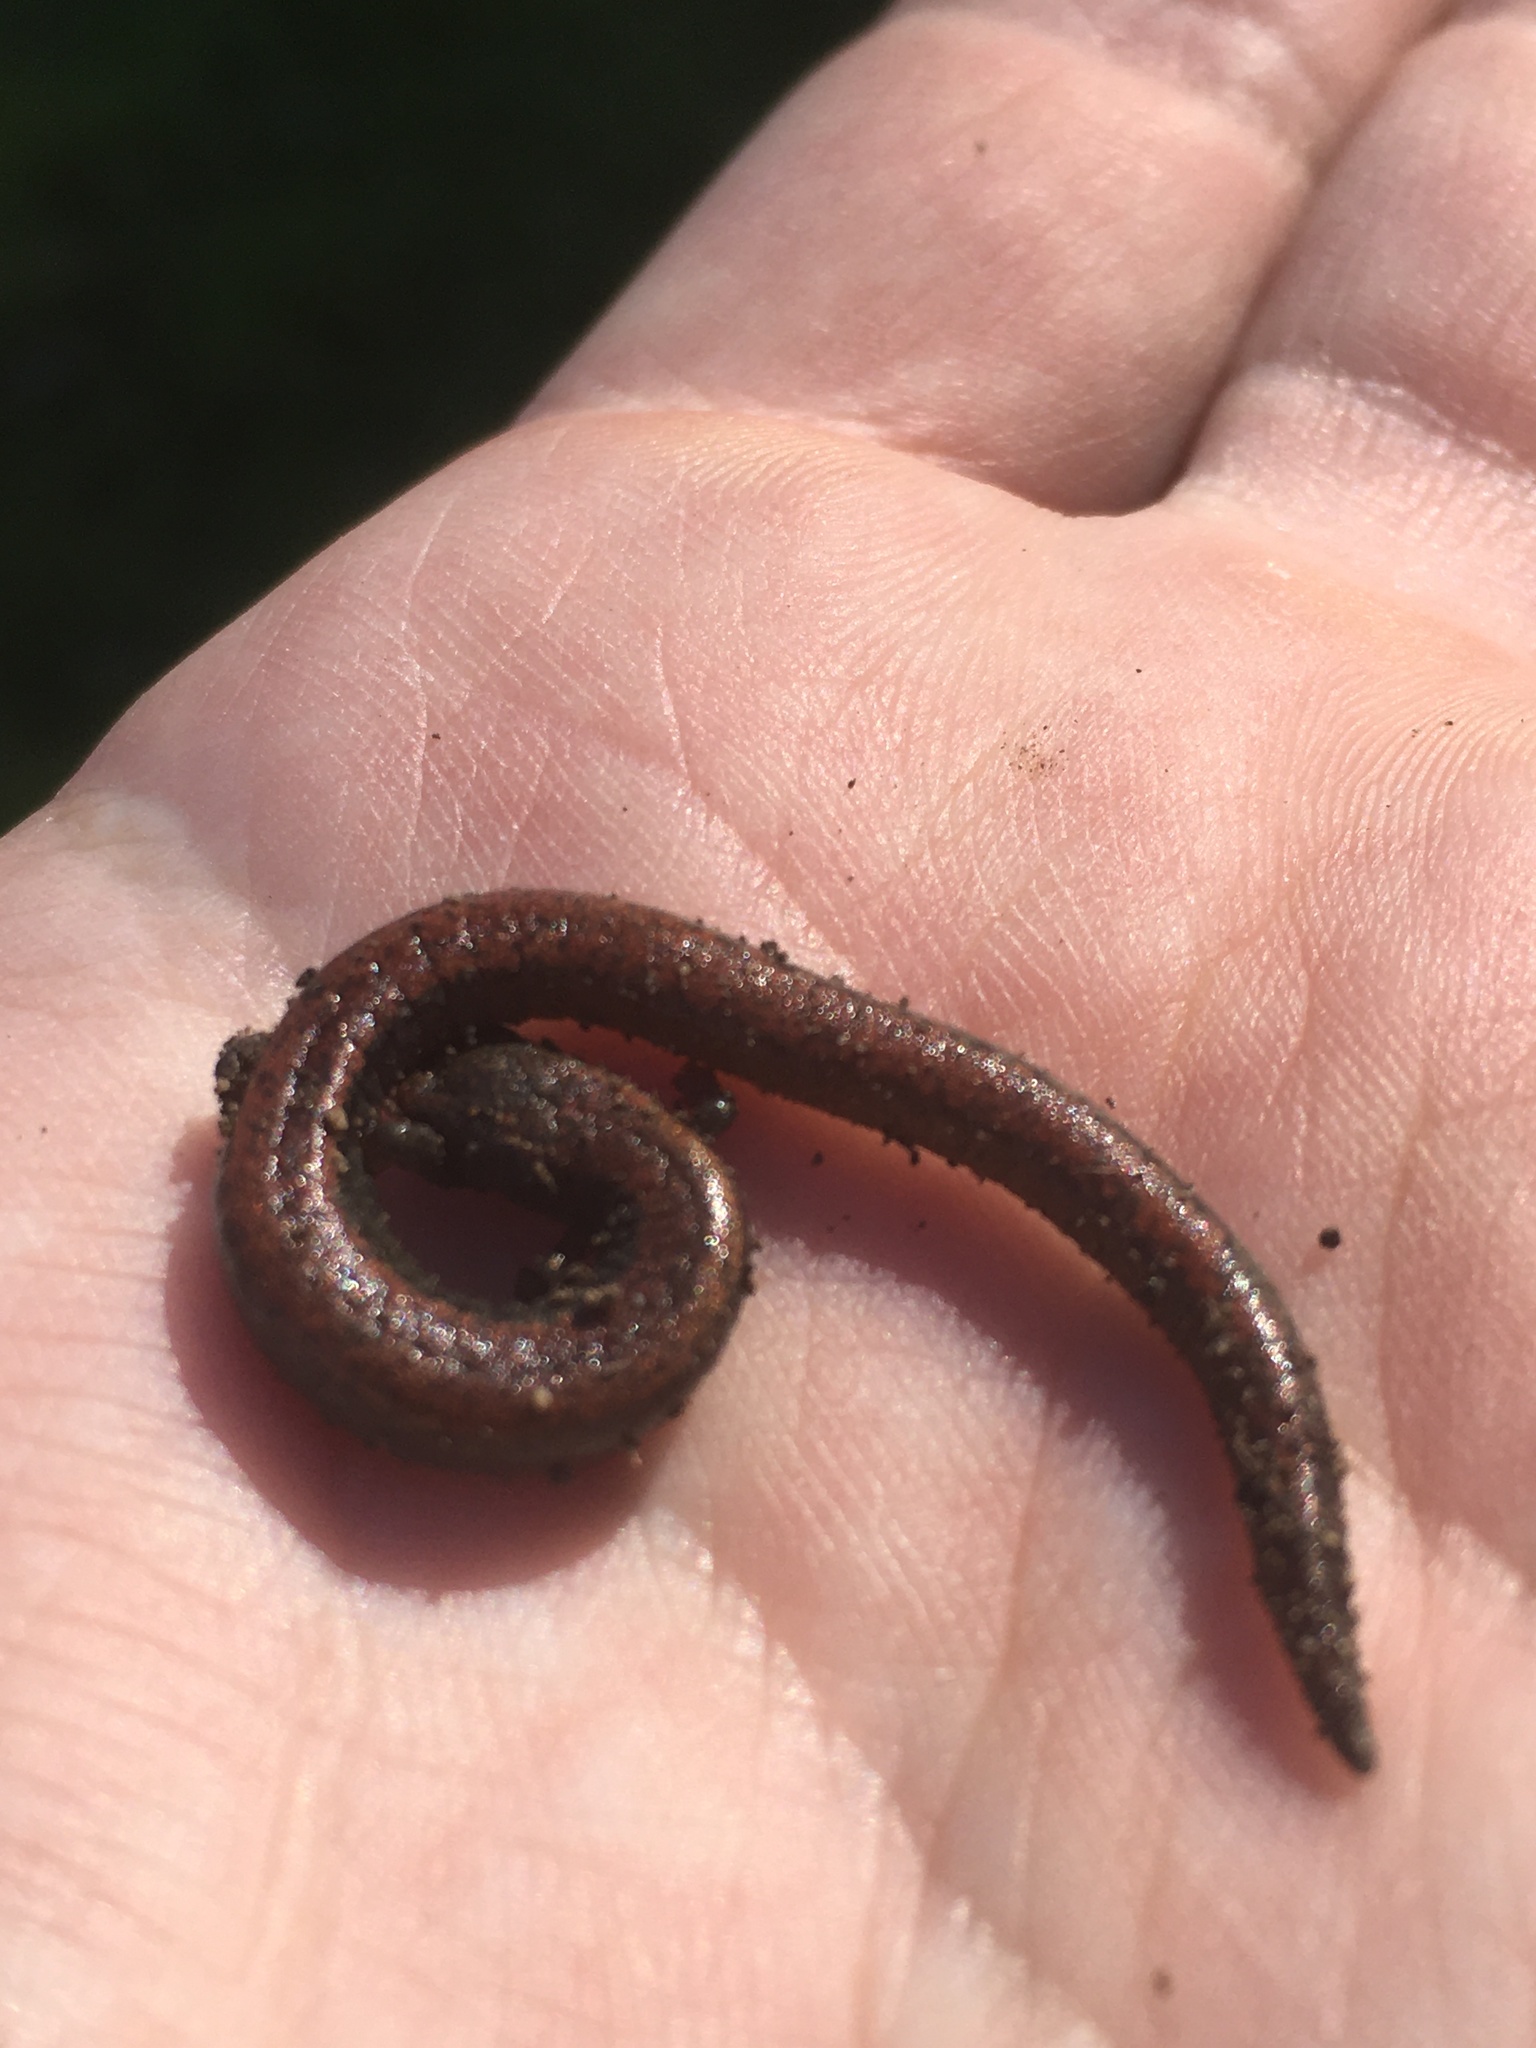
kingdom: Animalia
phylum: Chordata
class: Amphibia
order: Caudata
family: Plethodontidae
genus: Batrachoseps
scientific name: Batrachoseps major
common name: Garden slender salamander
